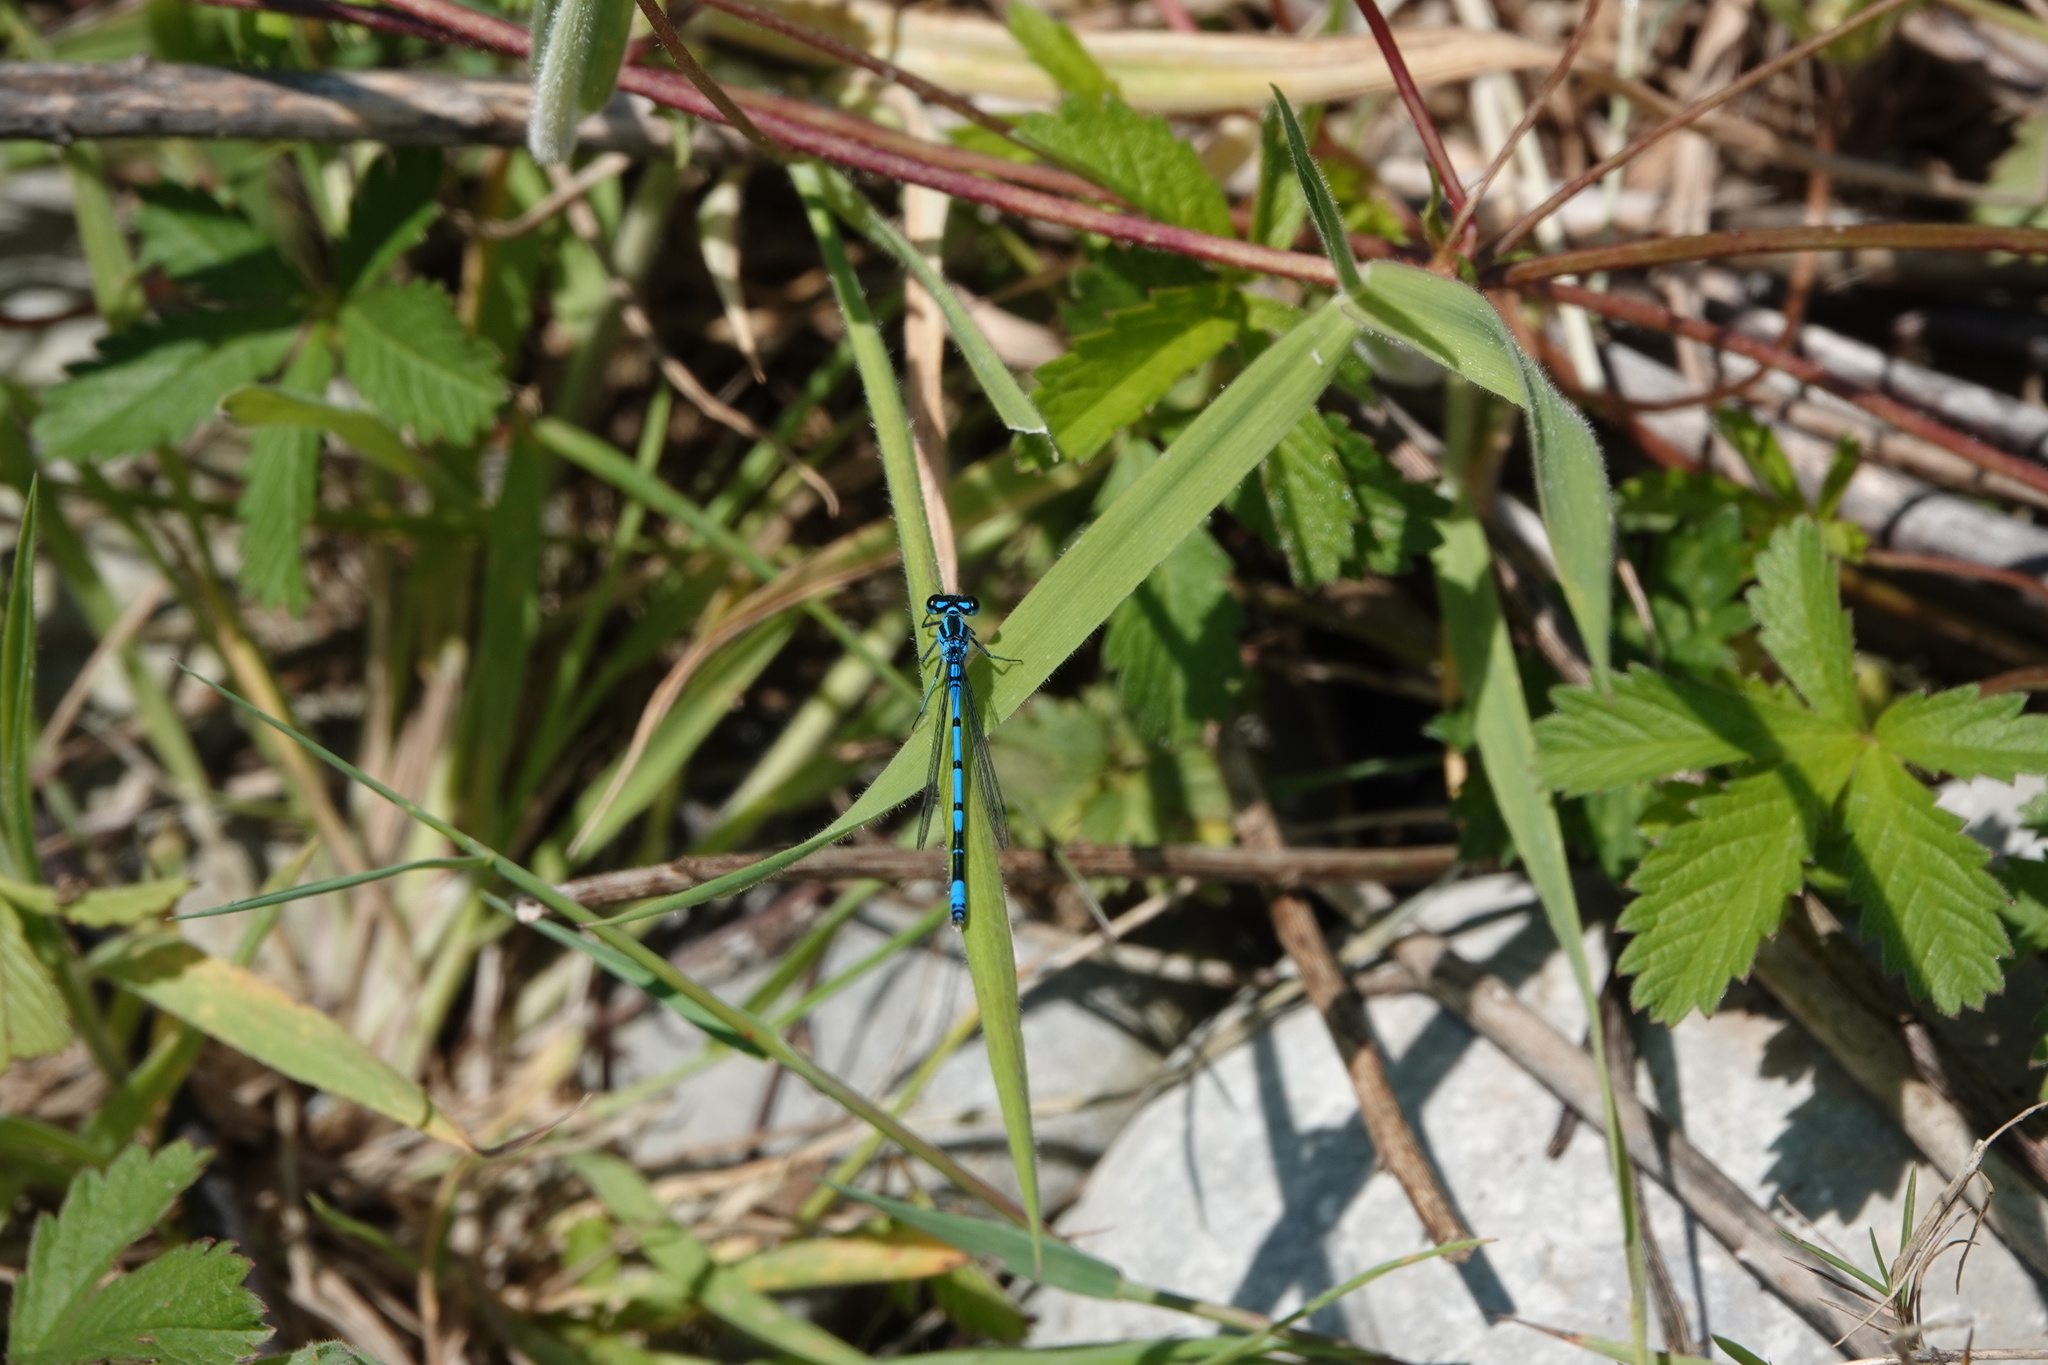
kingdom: Animalia
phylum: Arthropoda
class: Insecta
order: Odonata
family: Coenagrionidae
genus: Coenagrion
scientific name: Coenagrion puella
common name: Azure damselfly
